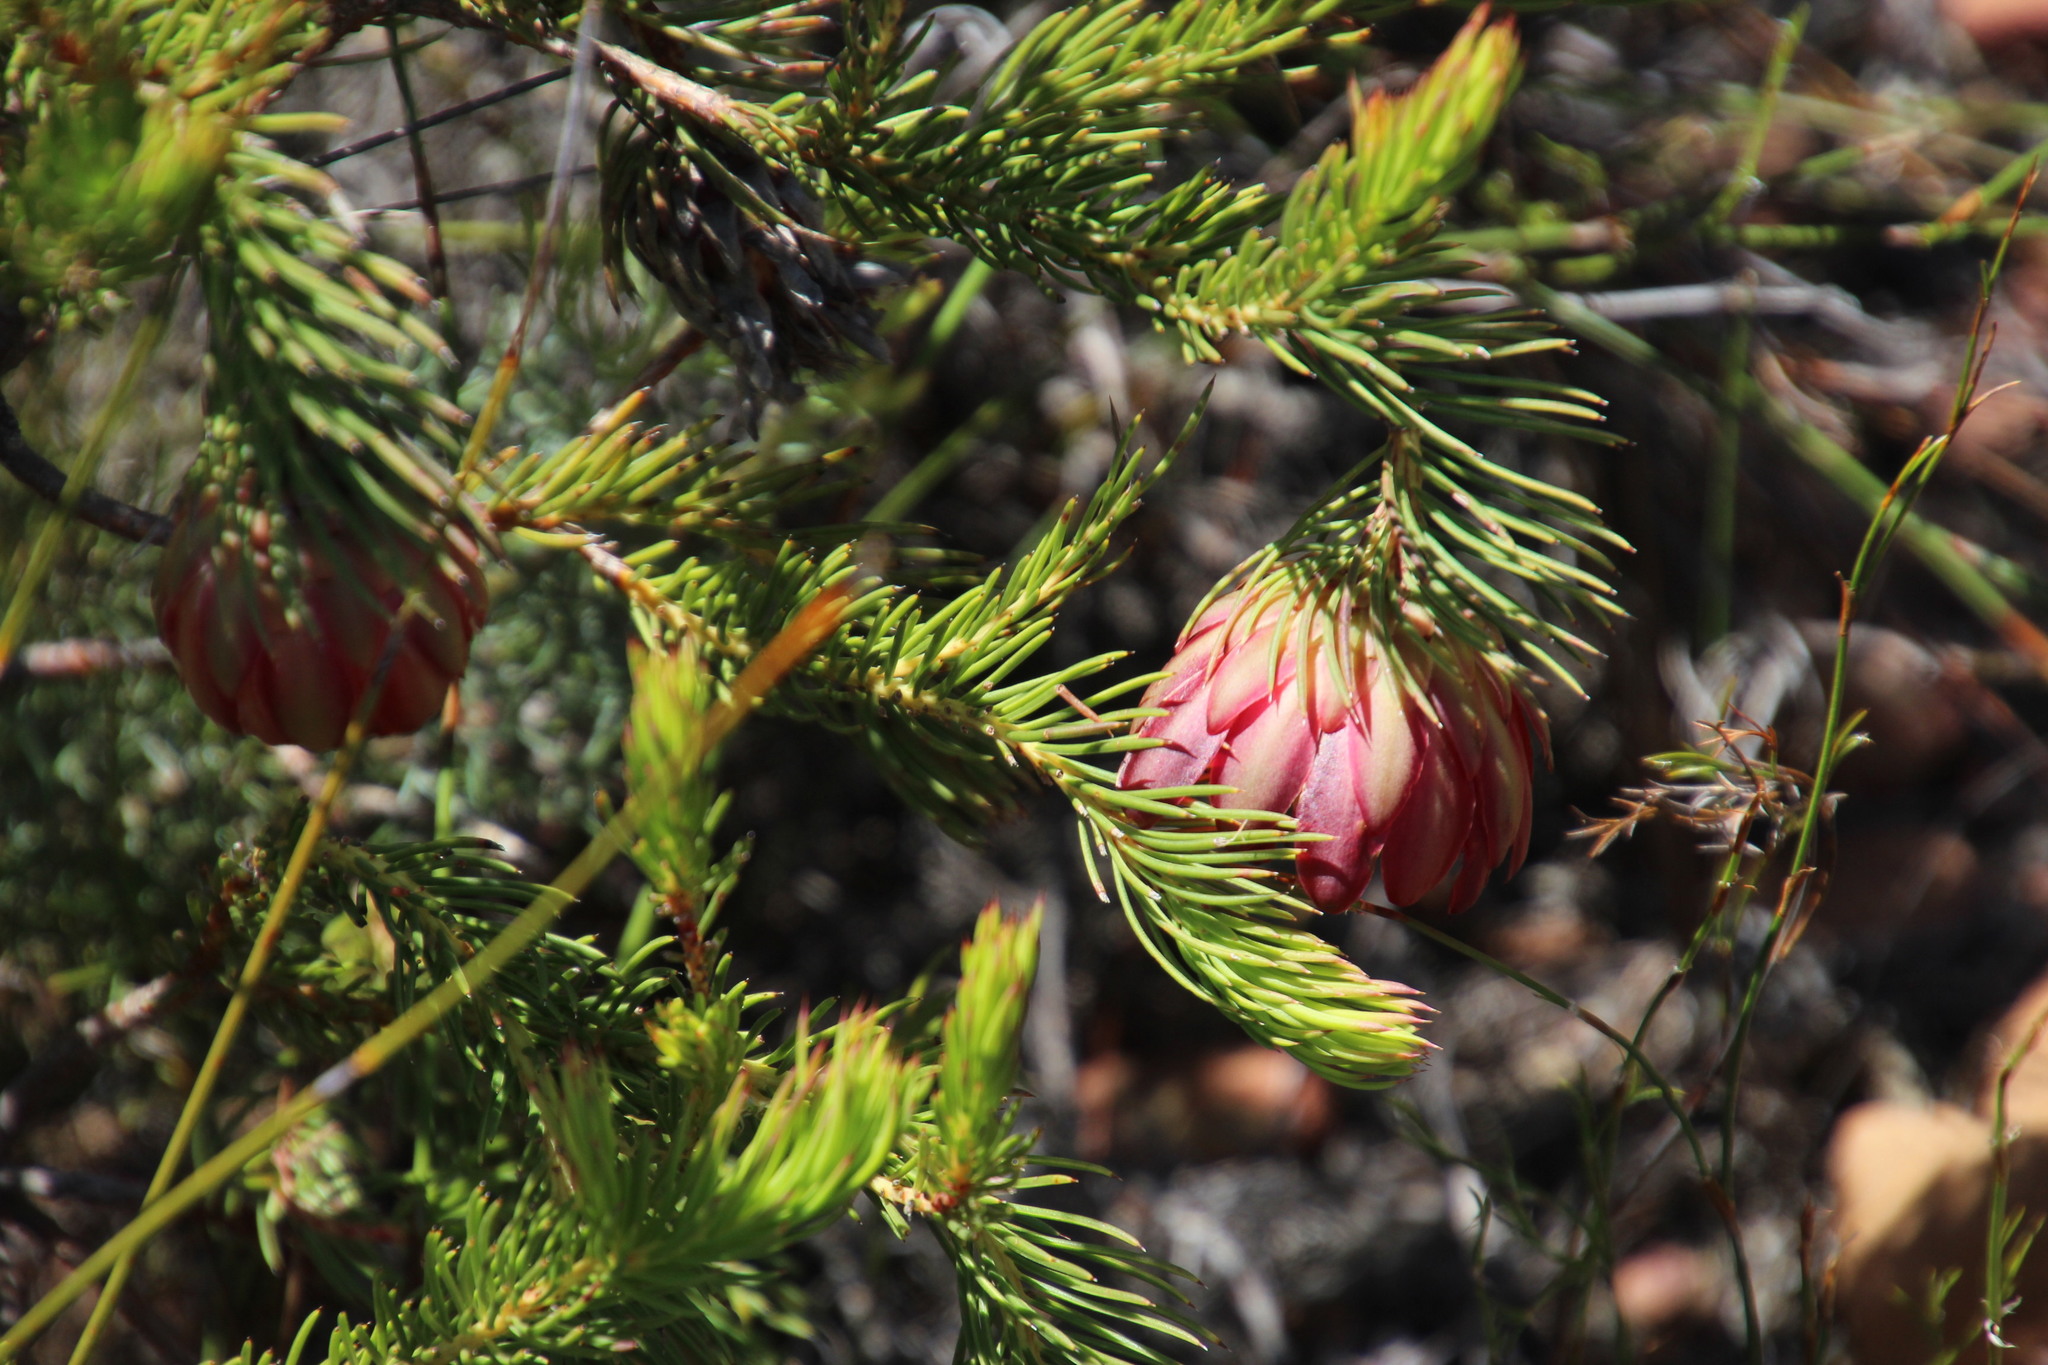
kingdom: Plantae
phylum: Tracheophyta
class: Magnoliopsida
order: Proteales
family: Proteaceae
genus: Protea
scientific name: Protea nana
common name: Mountain rose
